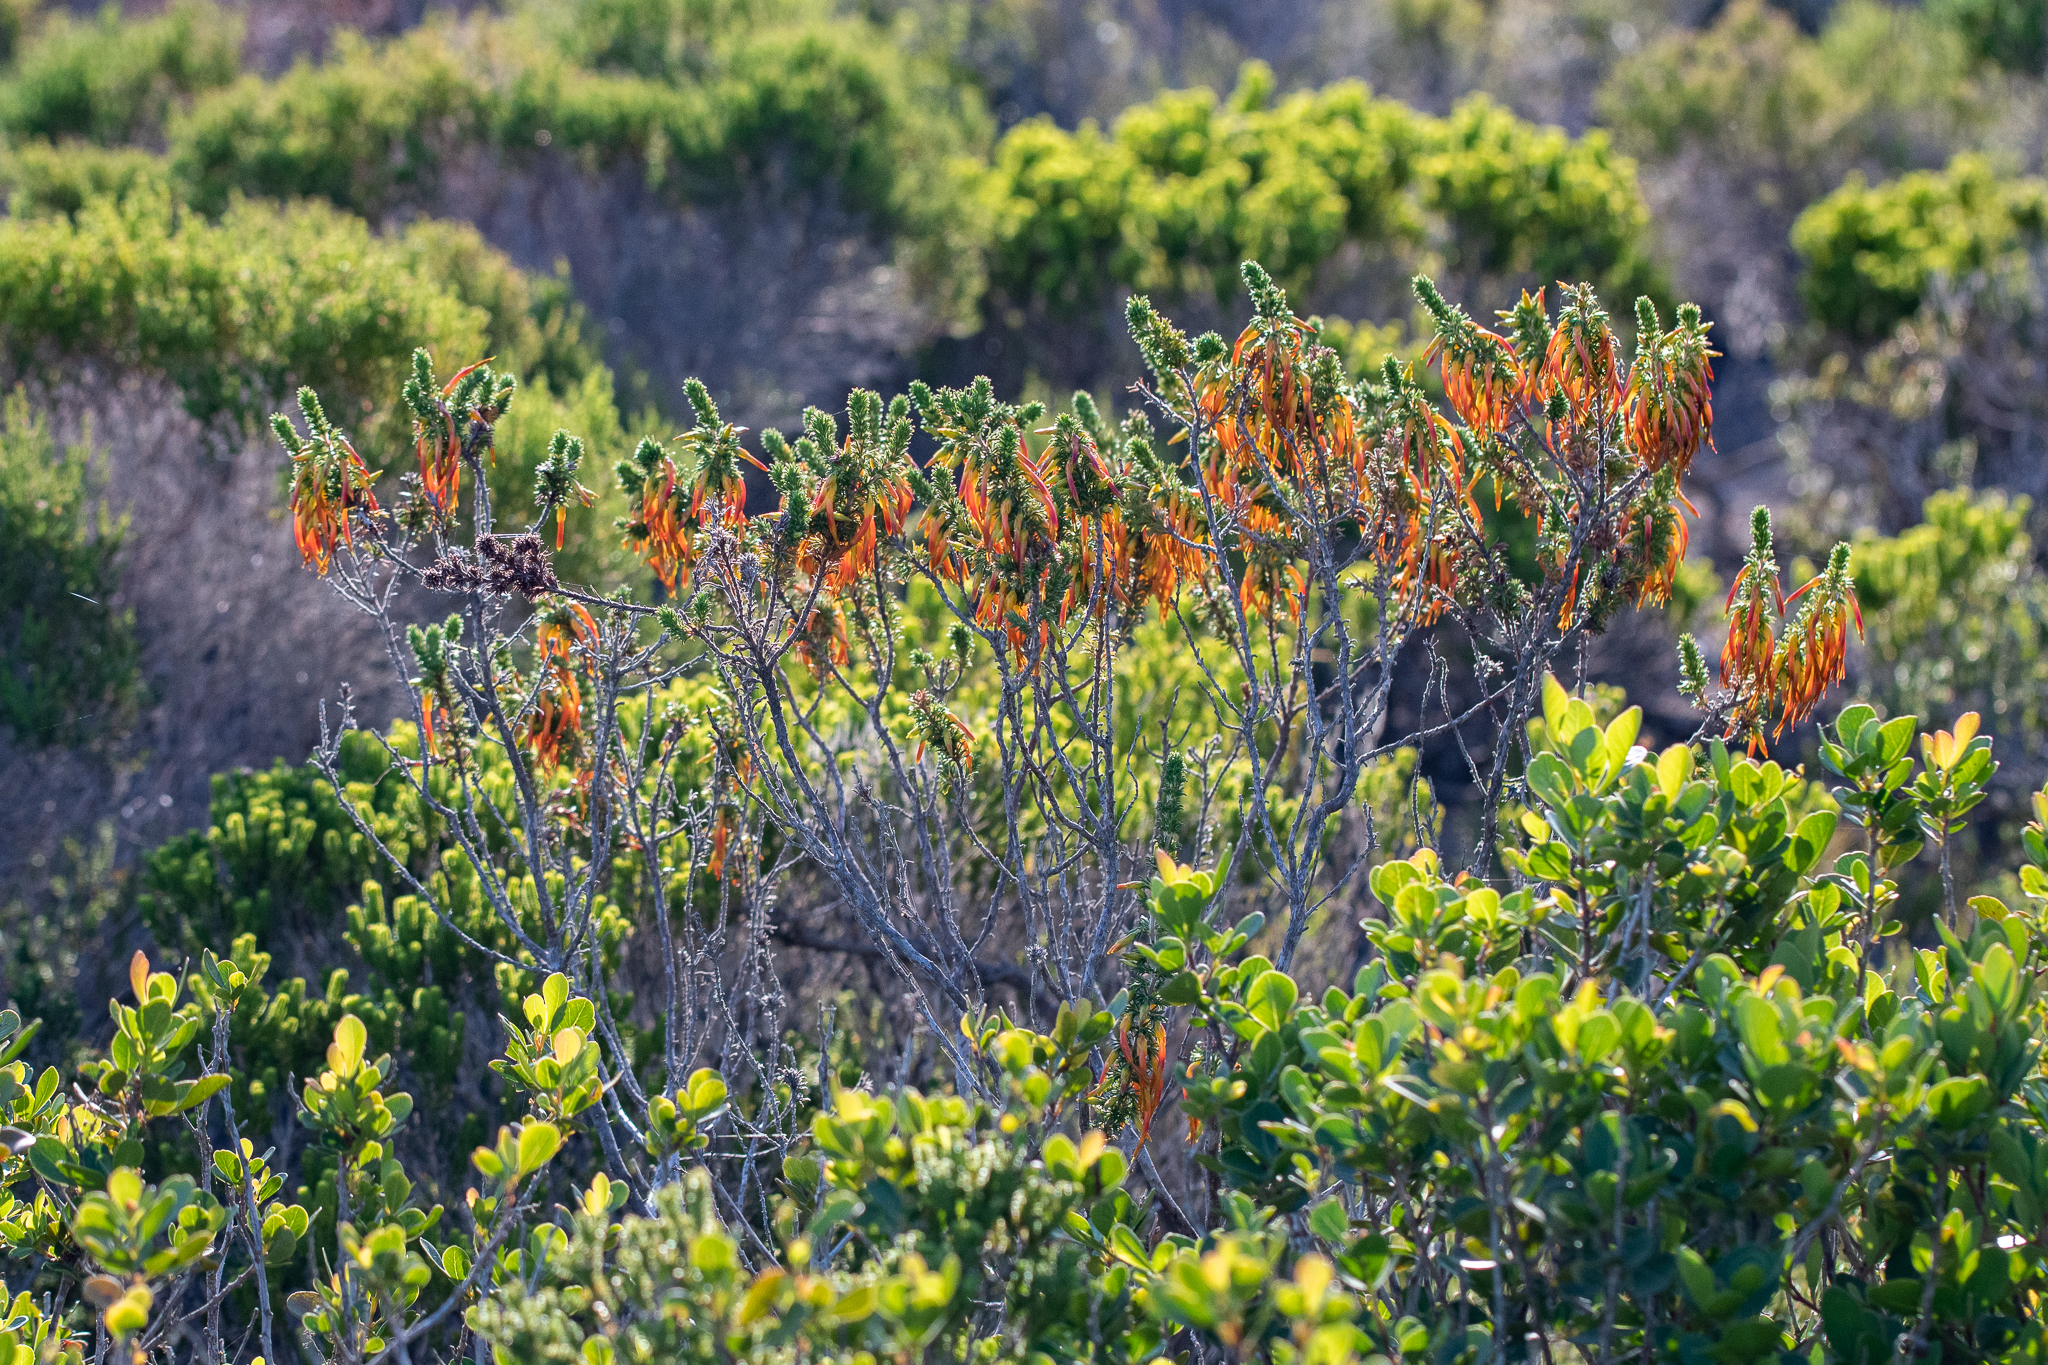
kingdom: Plantae
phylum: Tracheophyta
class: Magnoliopsida
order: Ericales
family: Ericaceae
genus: Erica
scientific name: Erica coccinea
